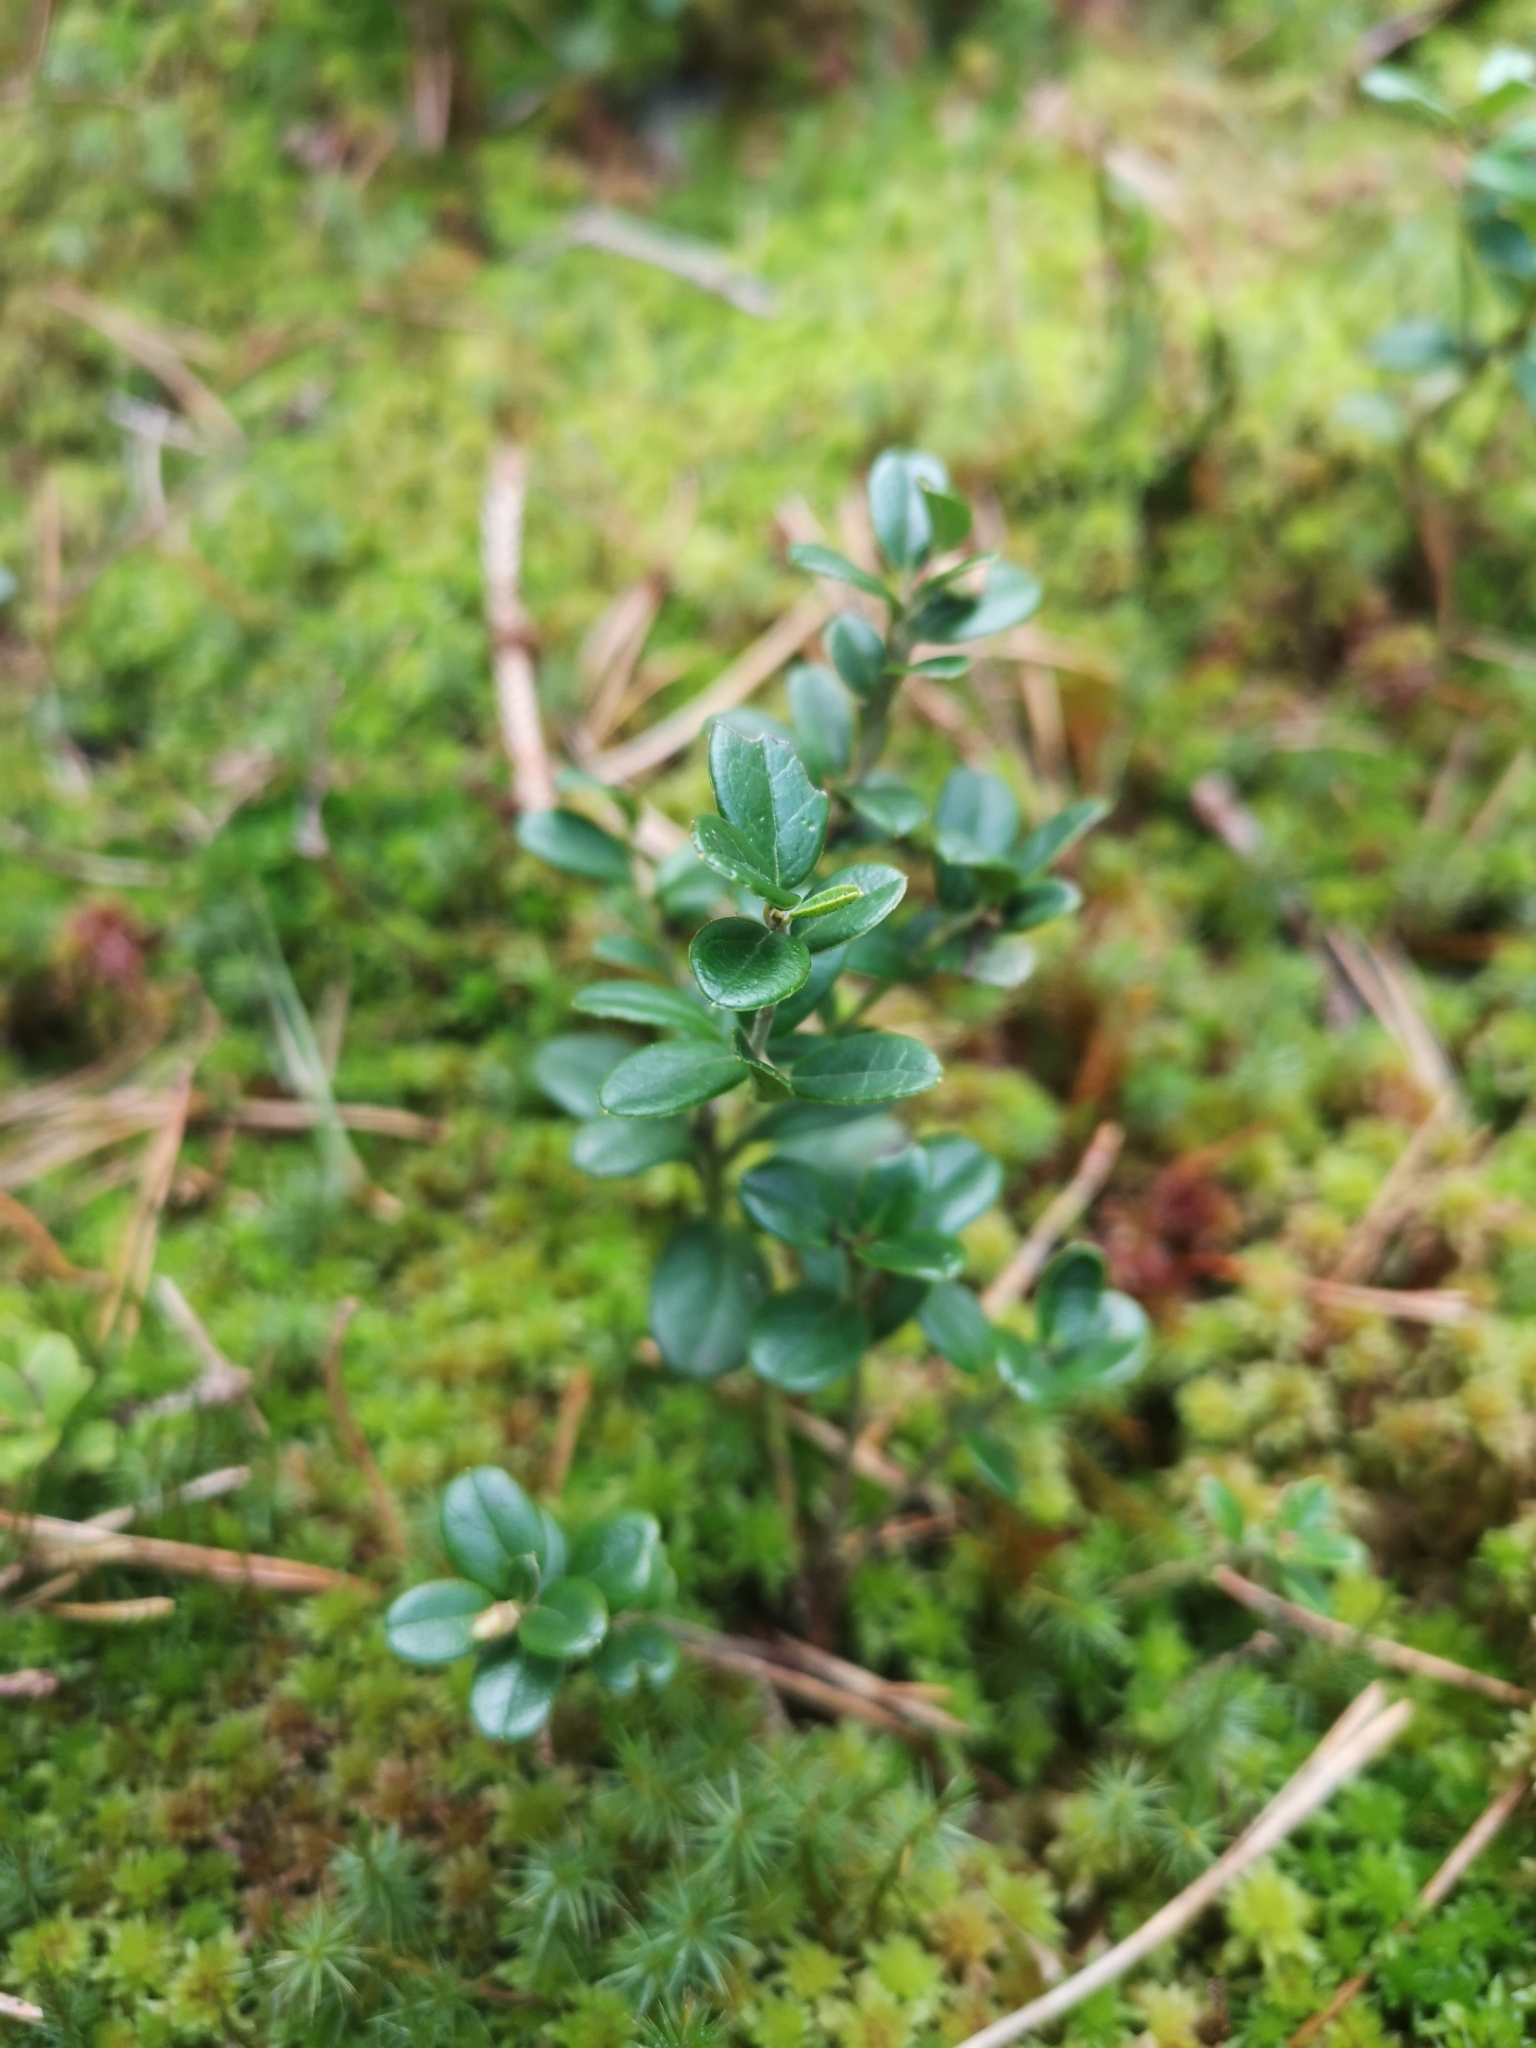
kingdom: Plantae
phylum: Tracheophyta
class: Magnoliopsida
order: Ericales
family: Ericaceae
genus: Vaccinium
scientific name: Vaccinium vitis-idaea
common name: Cowberry
